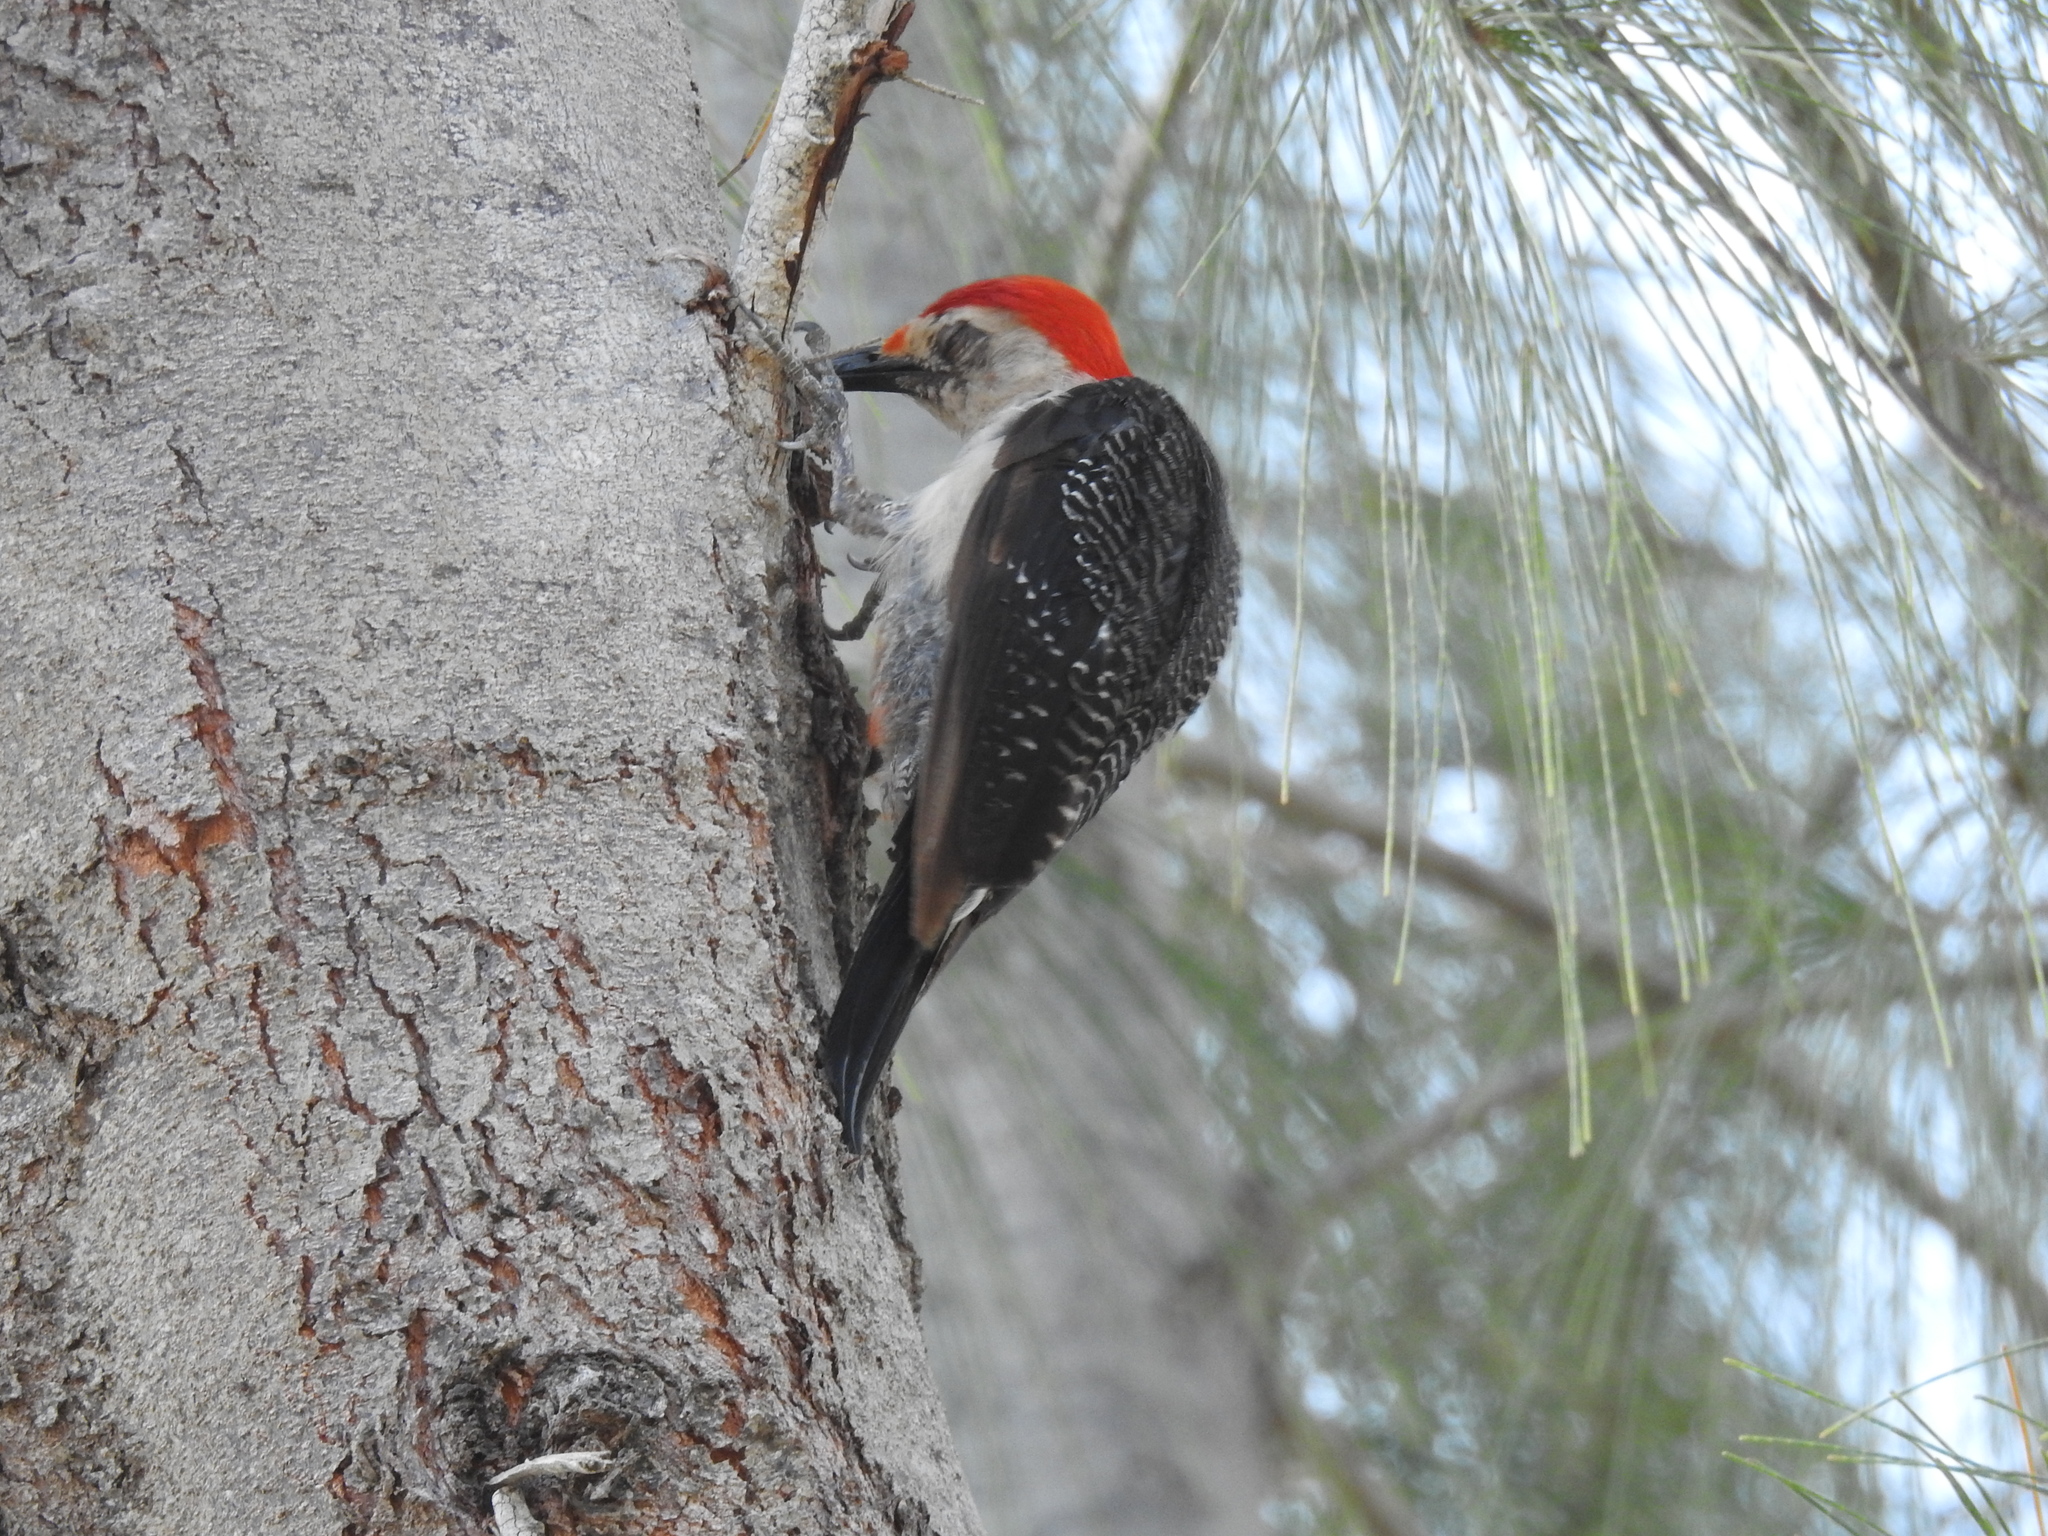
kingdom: Animalia
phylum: Chordata
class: Aves
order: Piciformes
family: Picidae
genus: Melanerpes
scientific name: Melanerpes santacruzi
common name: Velasquez's woodpecker
